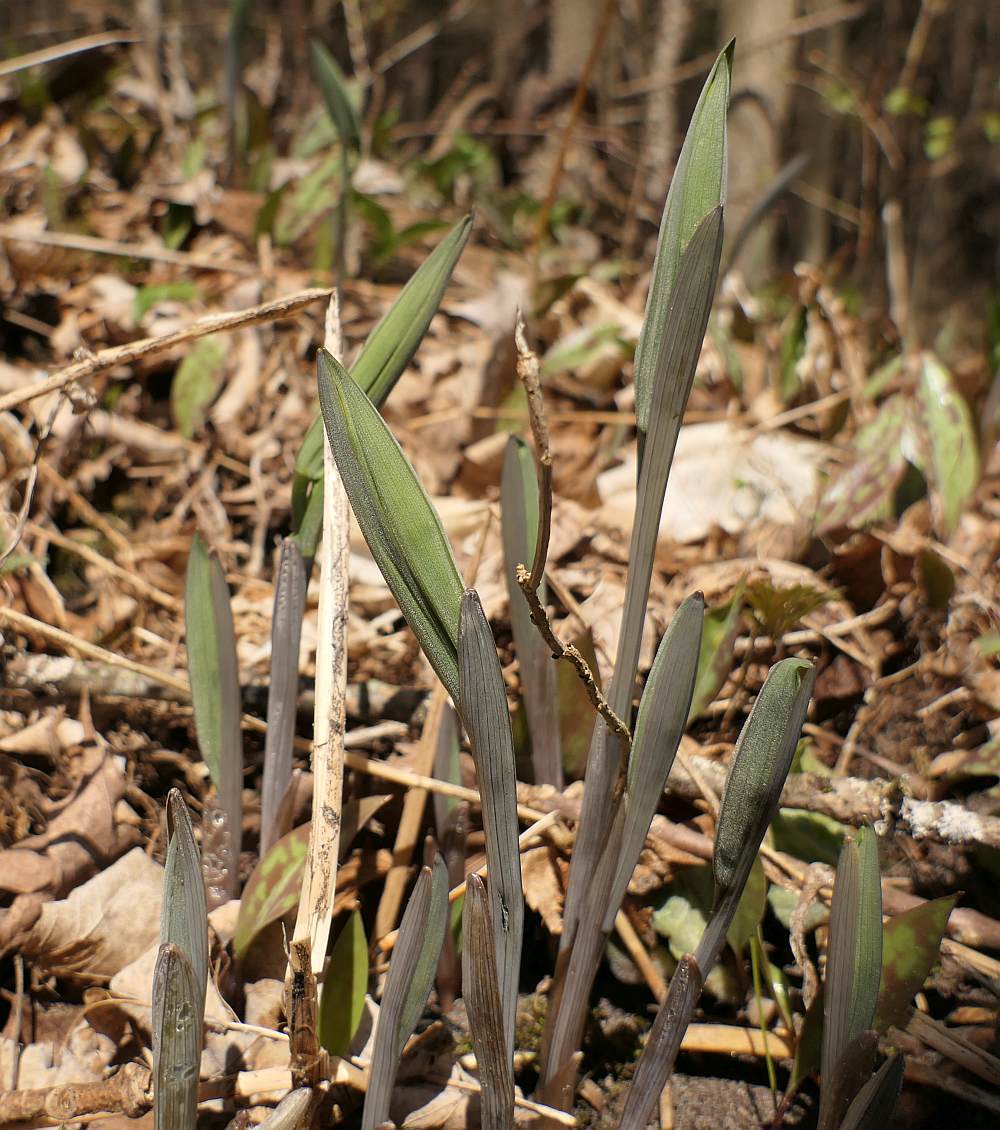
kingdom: Plantae
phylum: Tracheophyta
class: Liliopsida
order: Liliales
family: Colchicaceae
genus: Uvularia
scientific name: Uvularia grandiflora
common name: Bellwort
